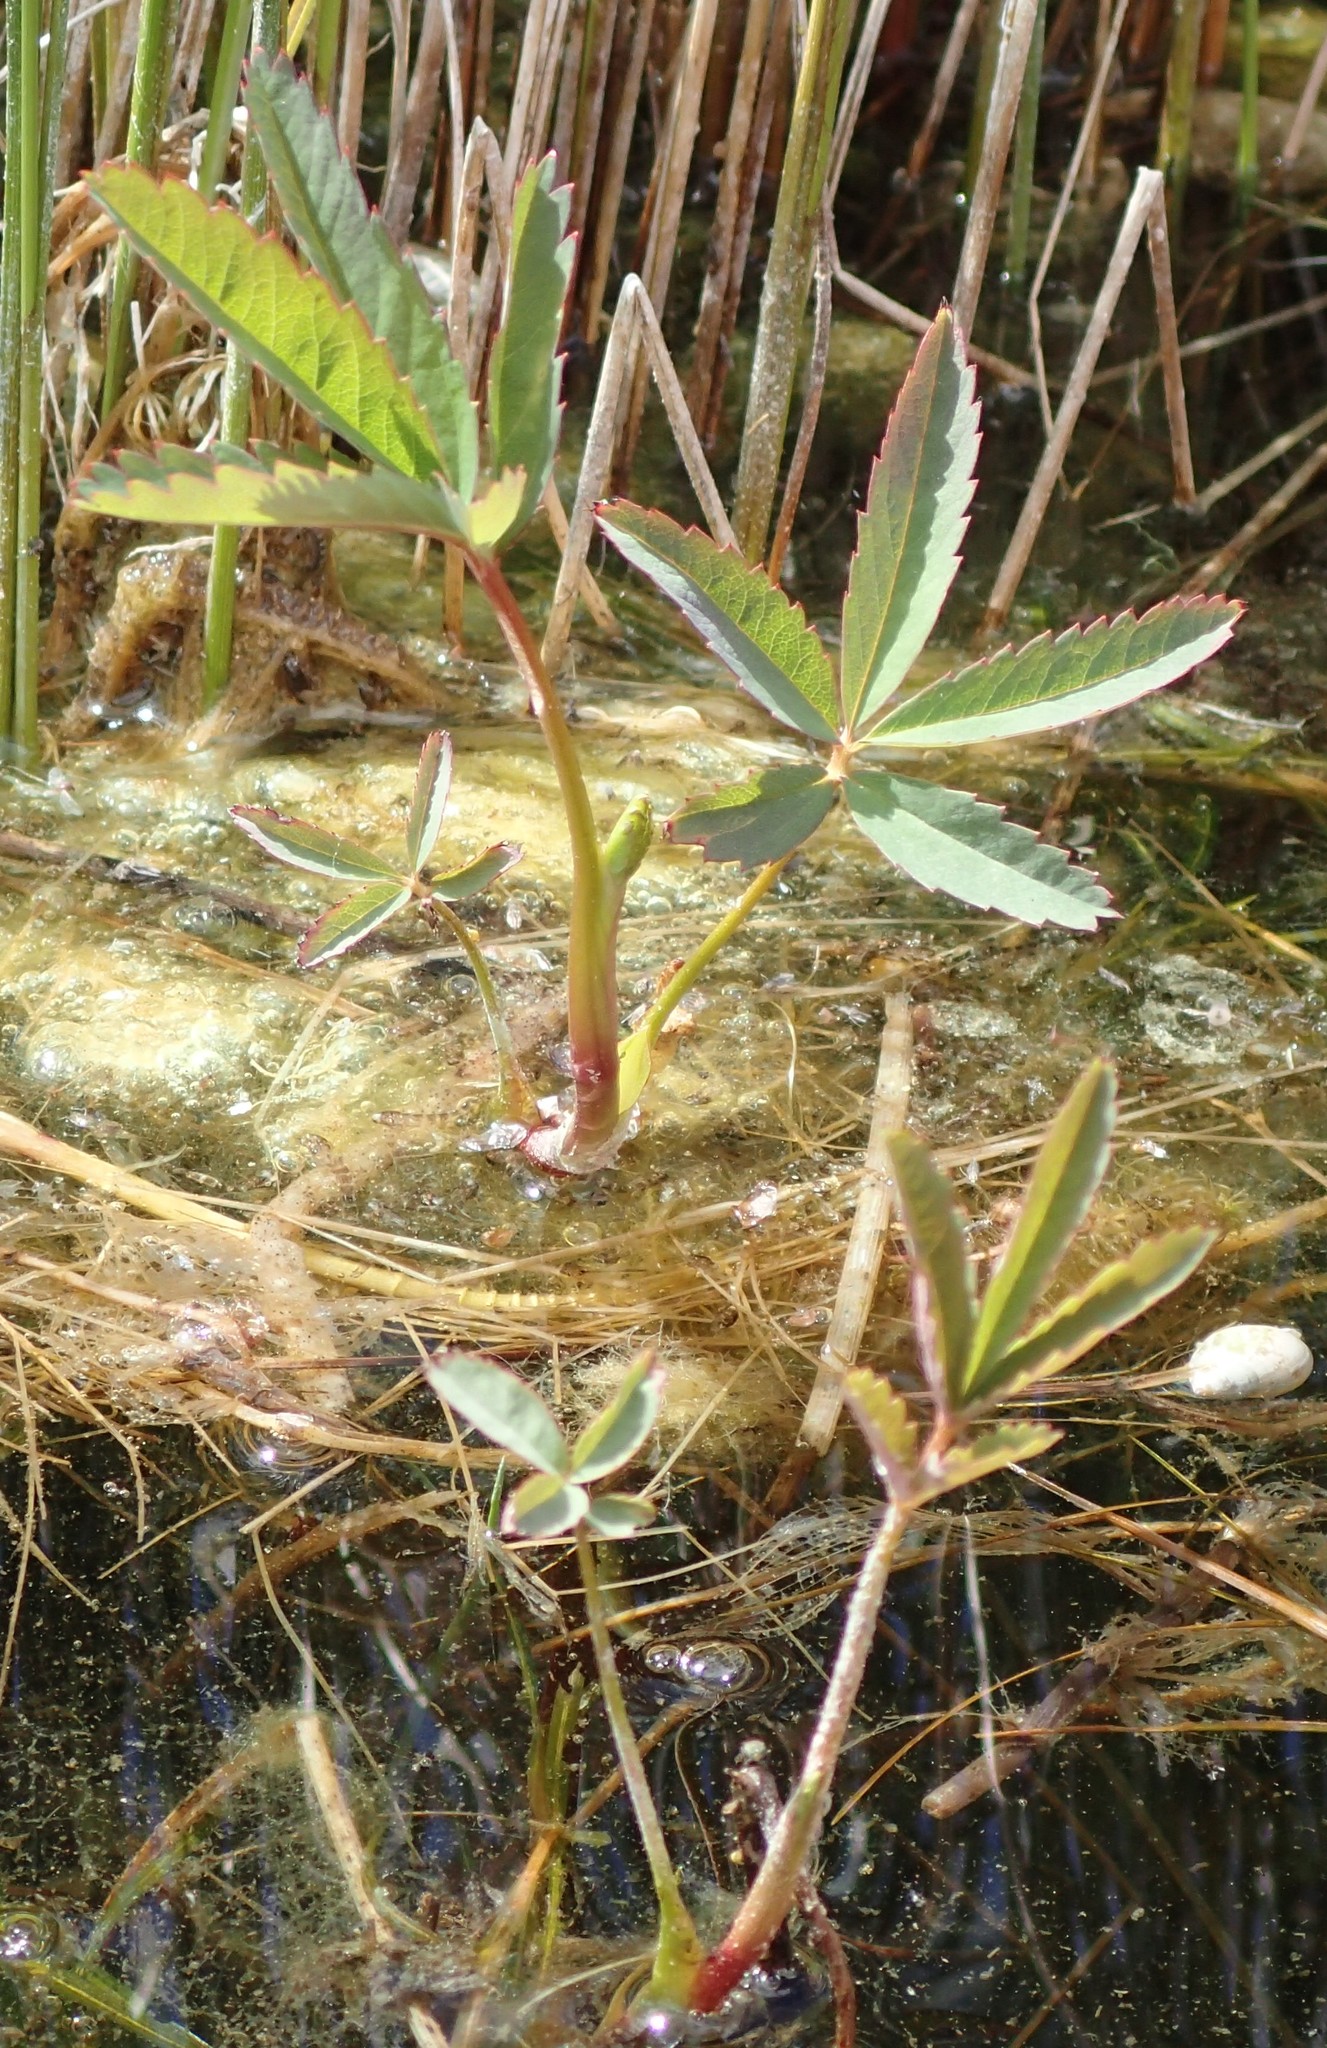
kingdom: Plantae
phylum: Tracheophyta
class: Magnoliopsida
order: Rosales
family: Rosaceae
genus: Comarum
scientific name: Comarum palustre
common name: Marsh cinquefoil
